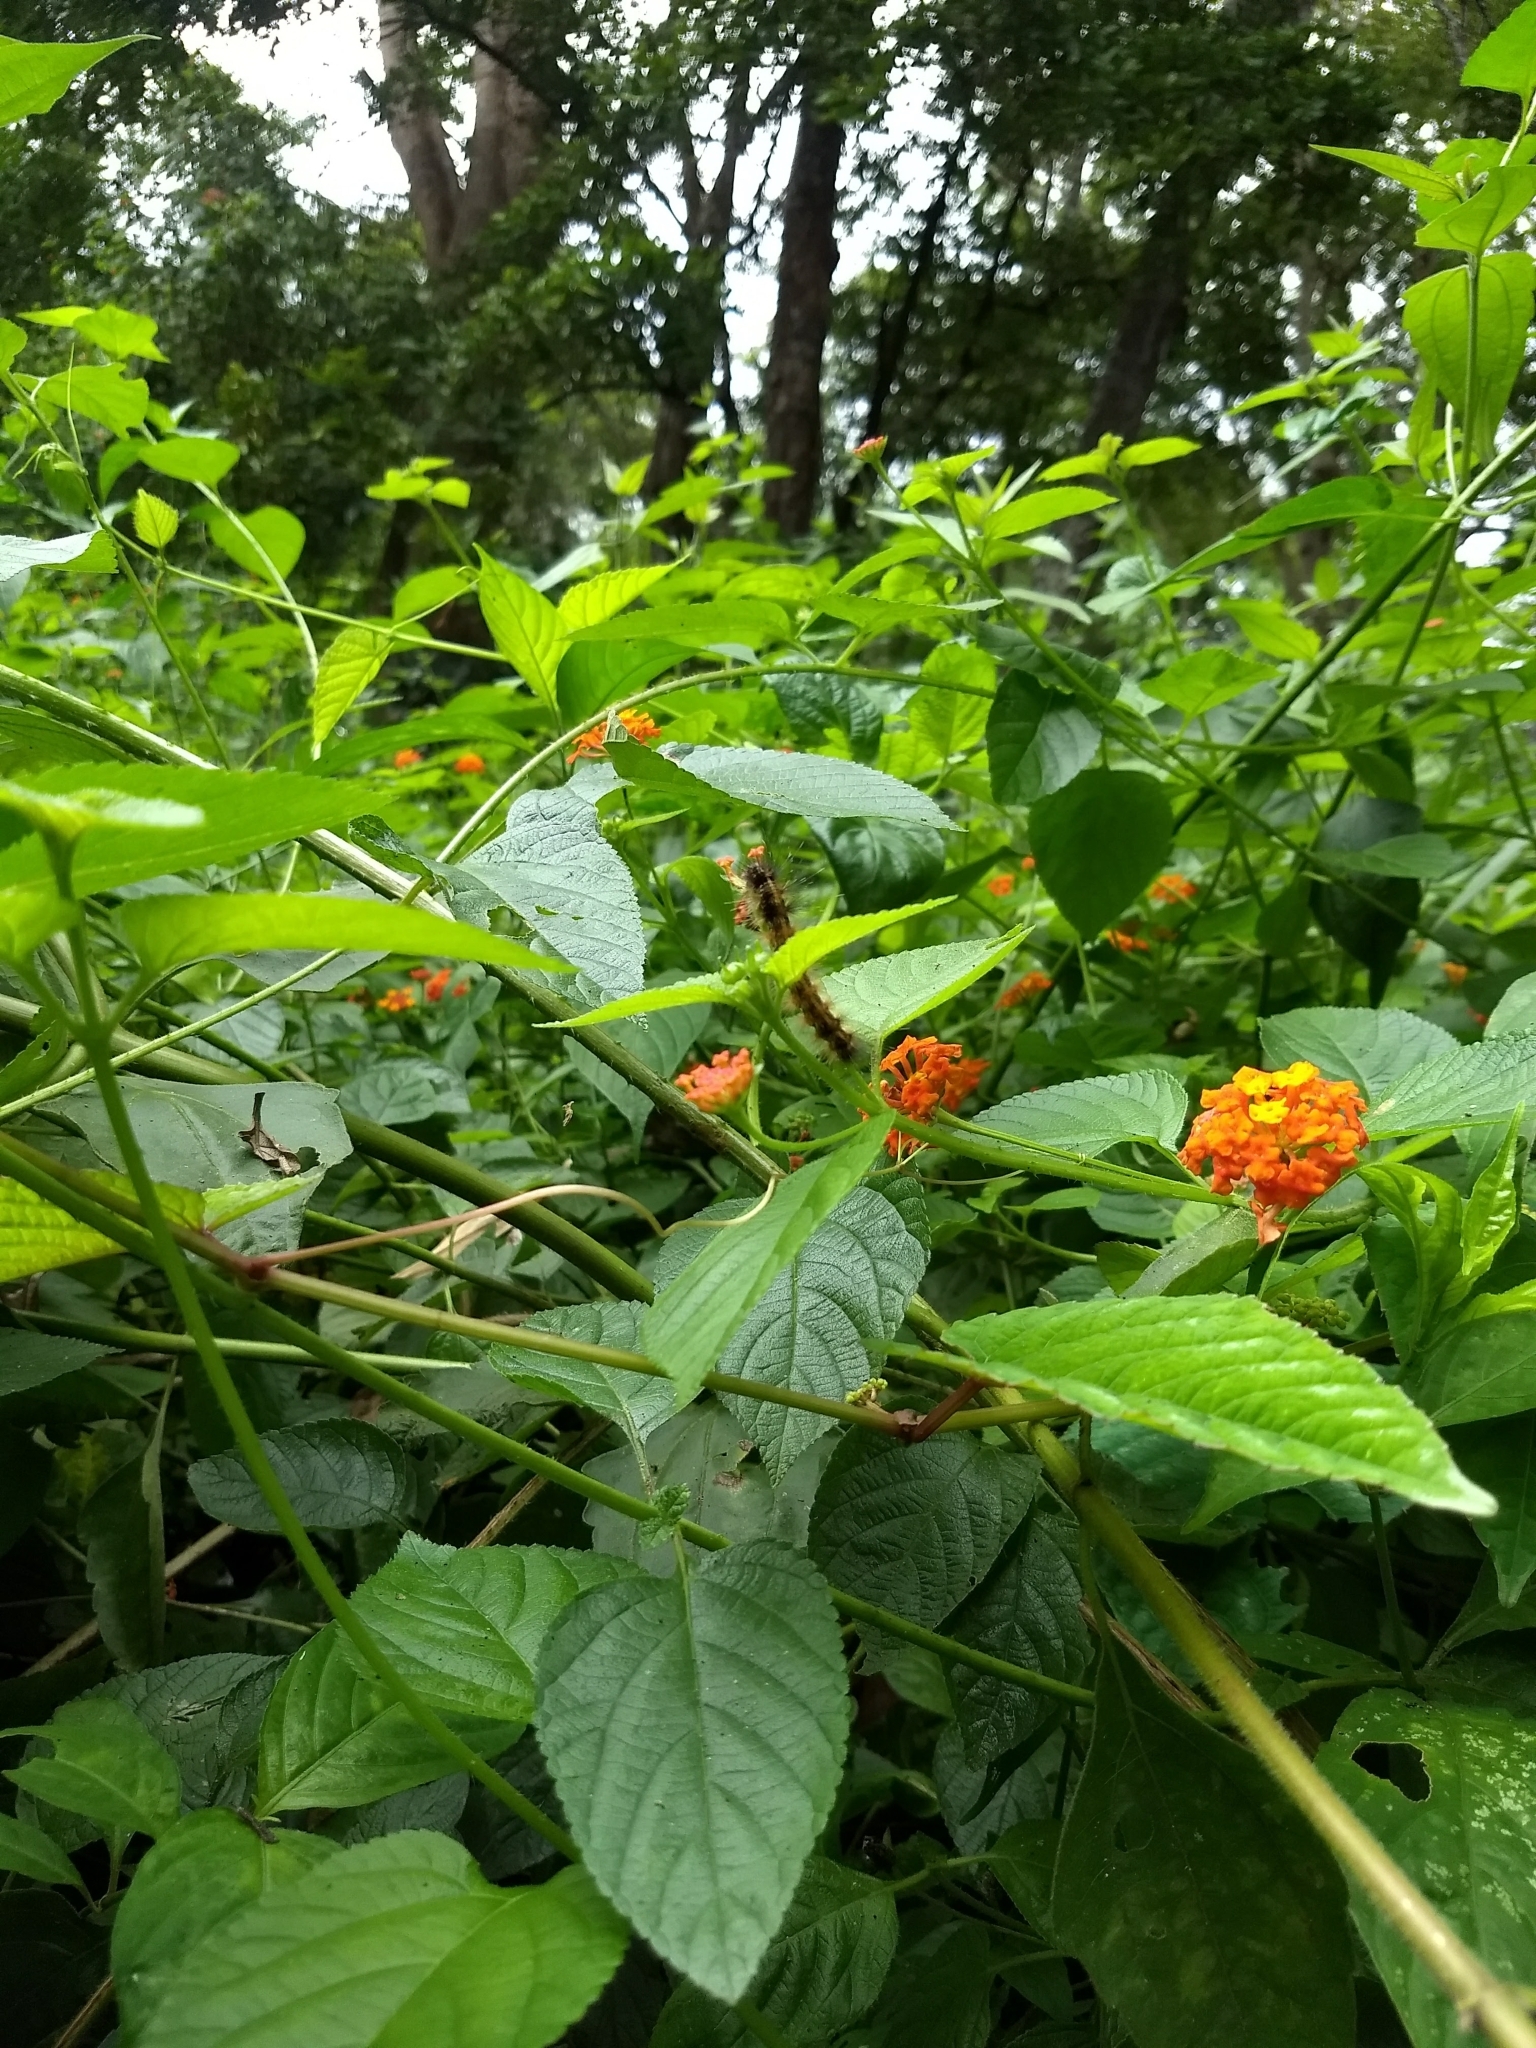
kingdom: Plantae
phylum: Tracheophyta
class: Magnoliopsida
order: Lamiales
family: Verbenaceae
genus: Lantana
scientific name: Lantana camara
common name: Lantana
